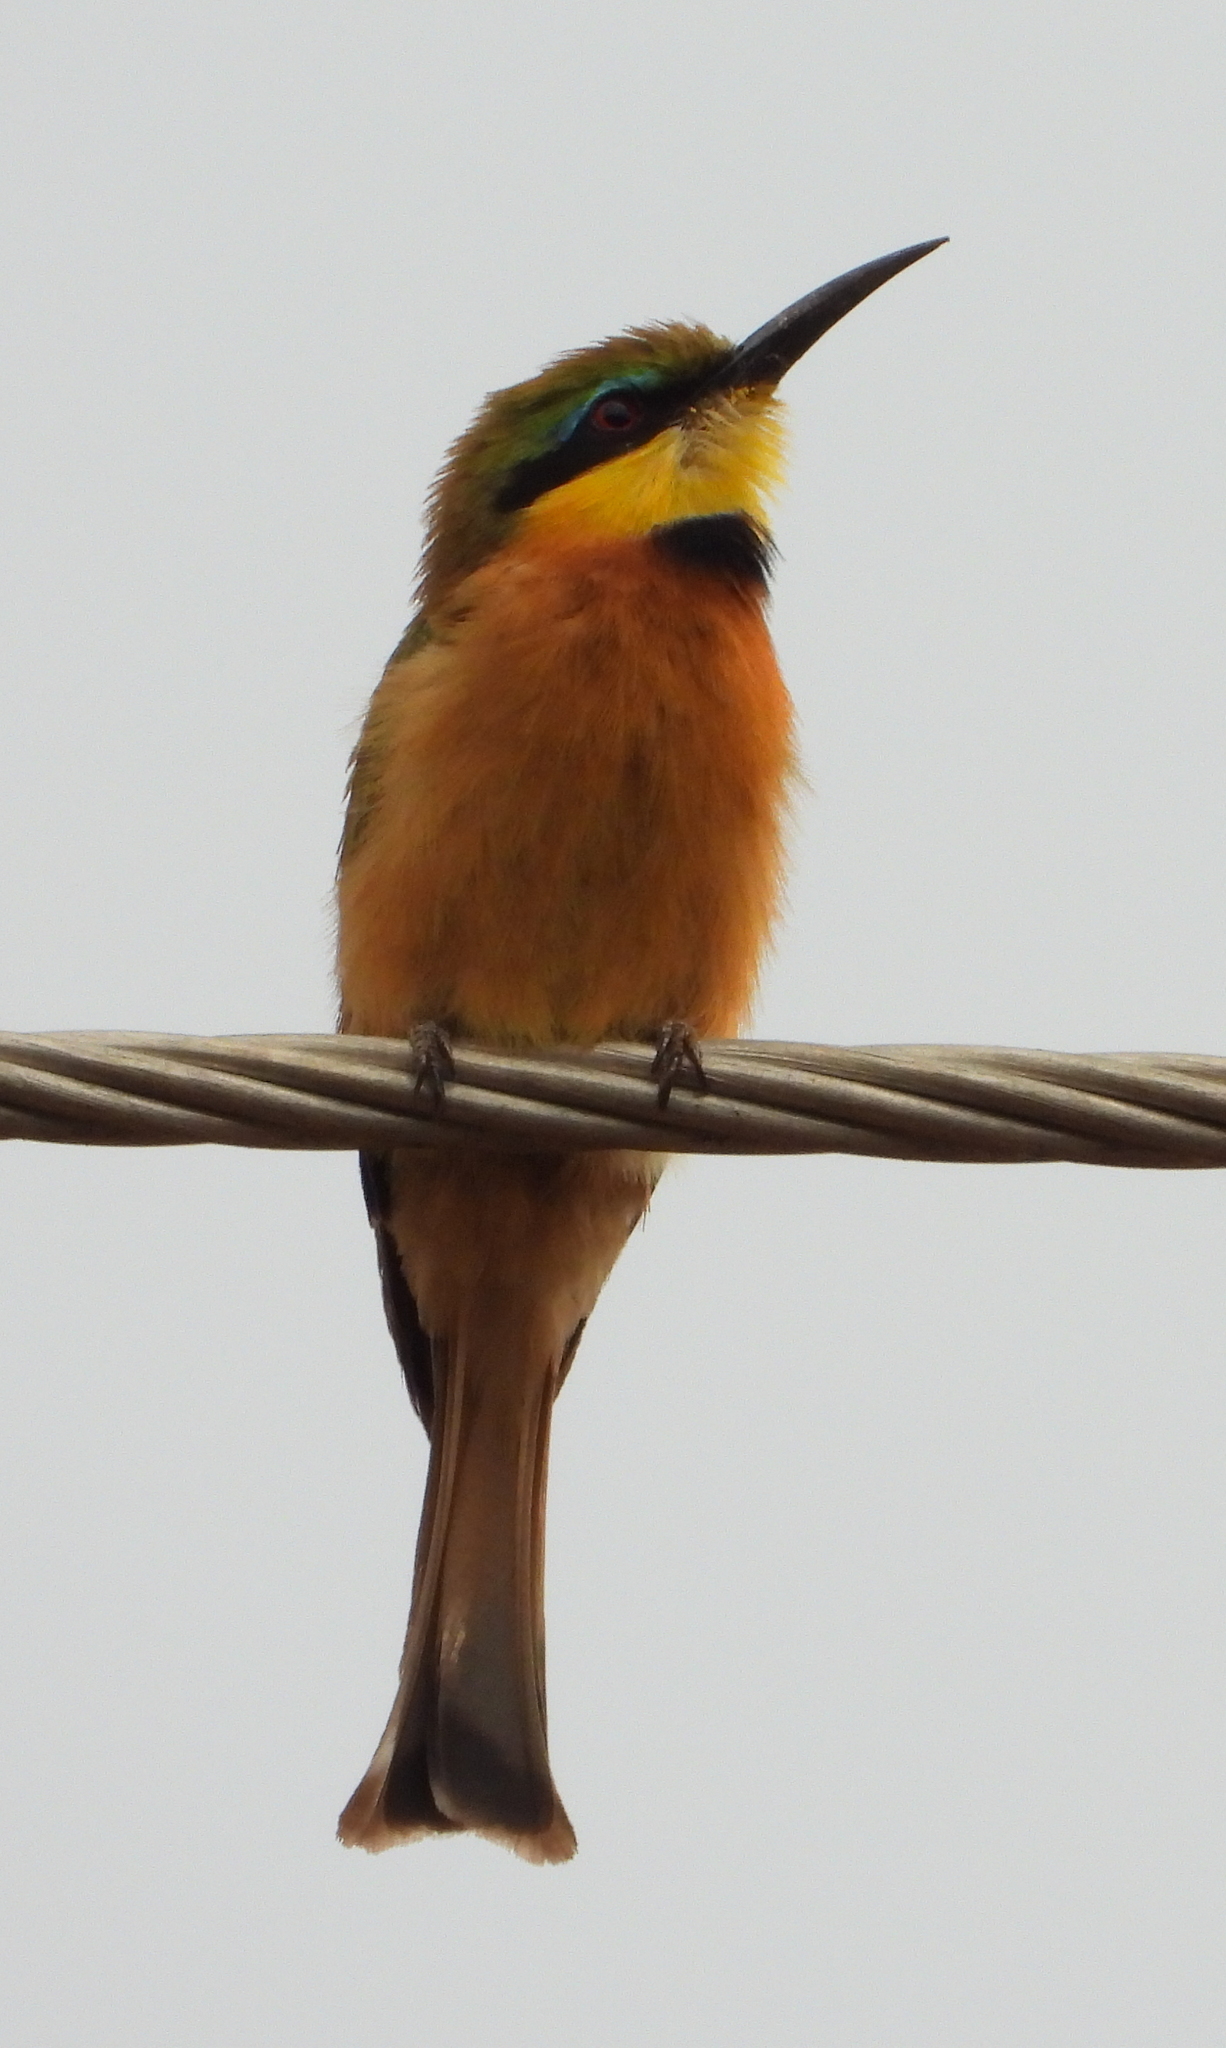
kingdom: Animalia
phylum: Chordata
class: Aves
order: Coraciiformes
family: Meropidae
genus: Merops
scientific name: Merops pusillus
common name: Little bee-eater
